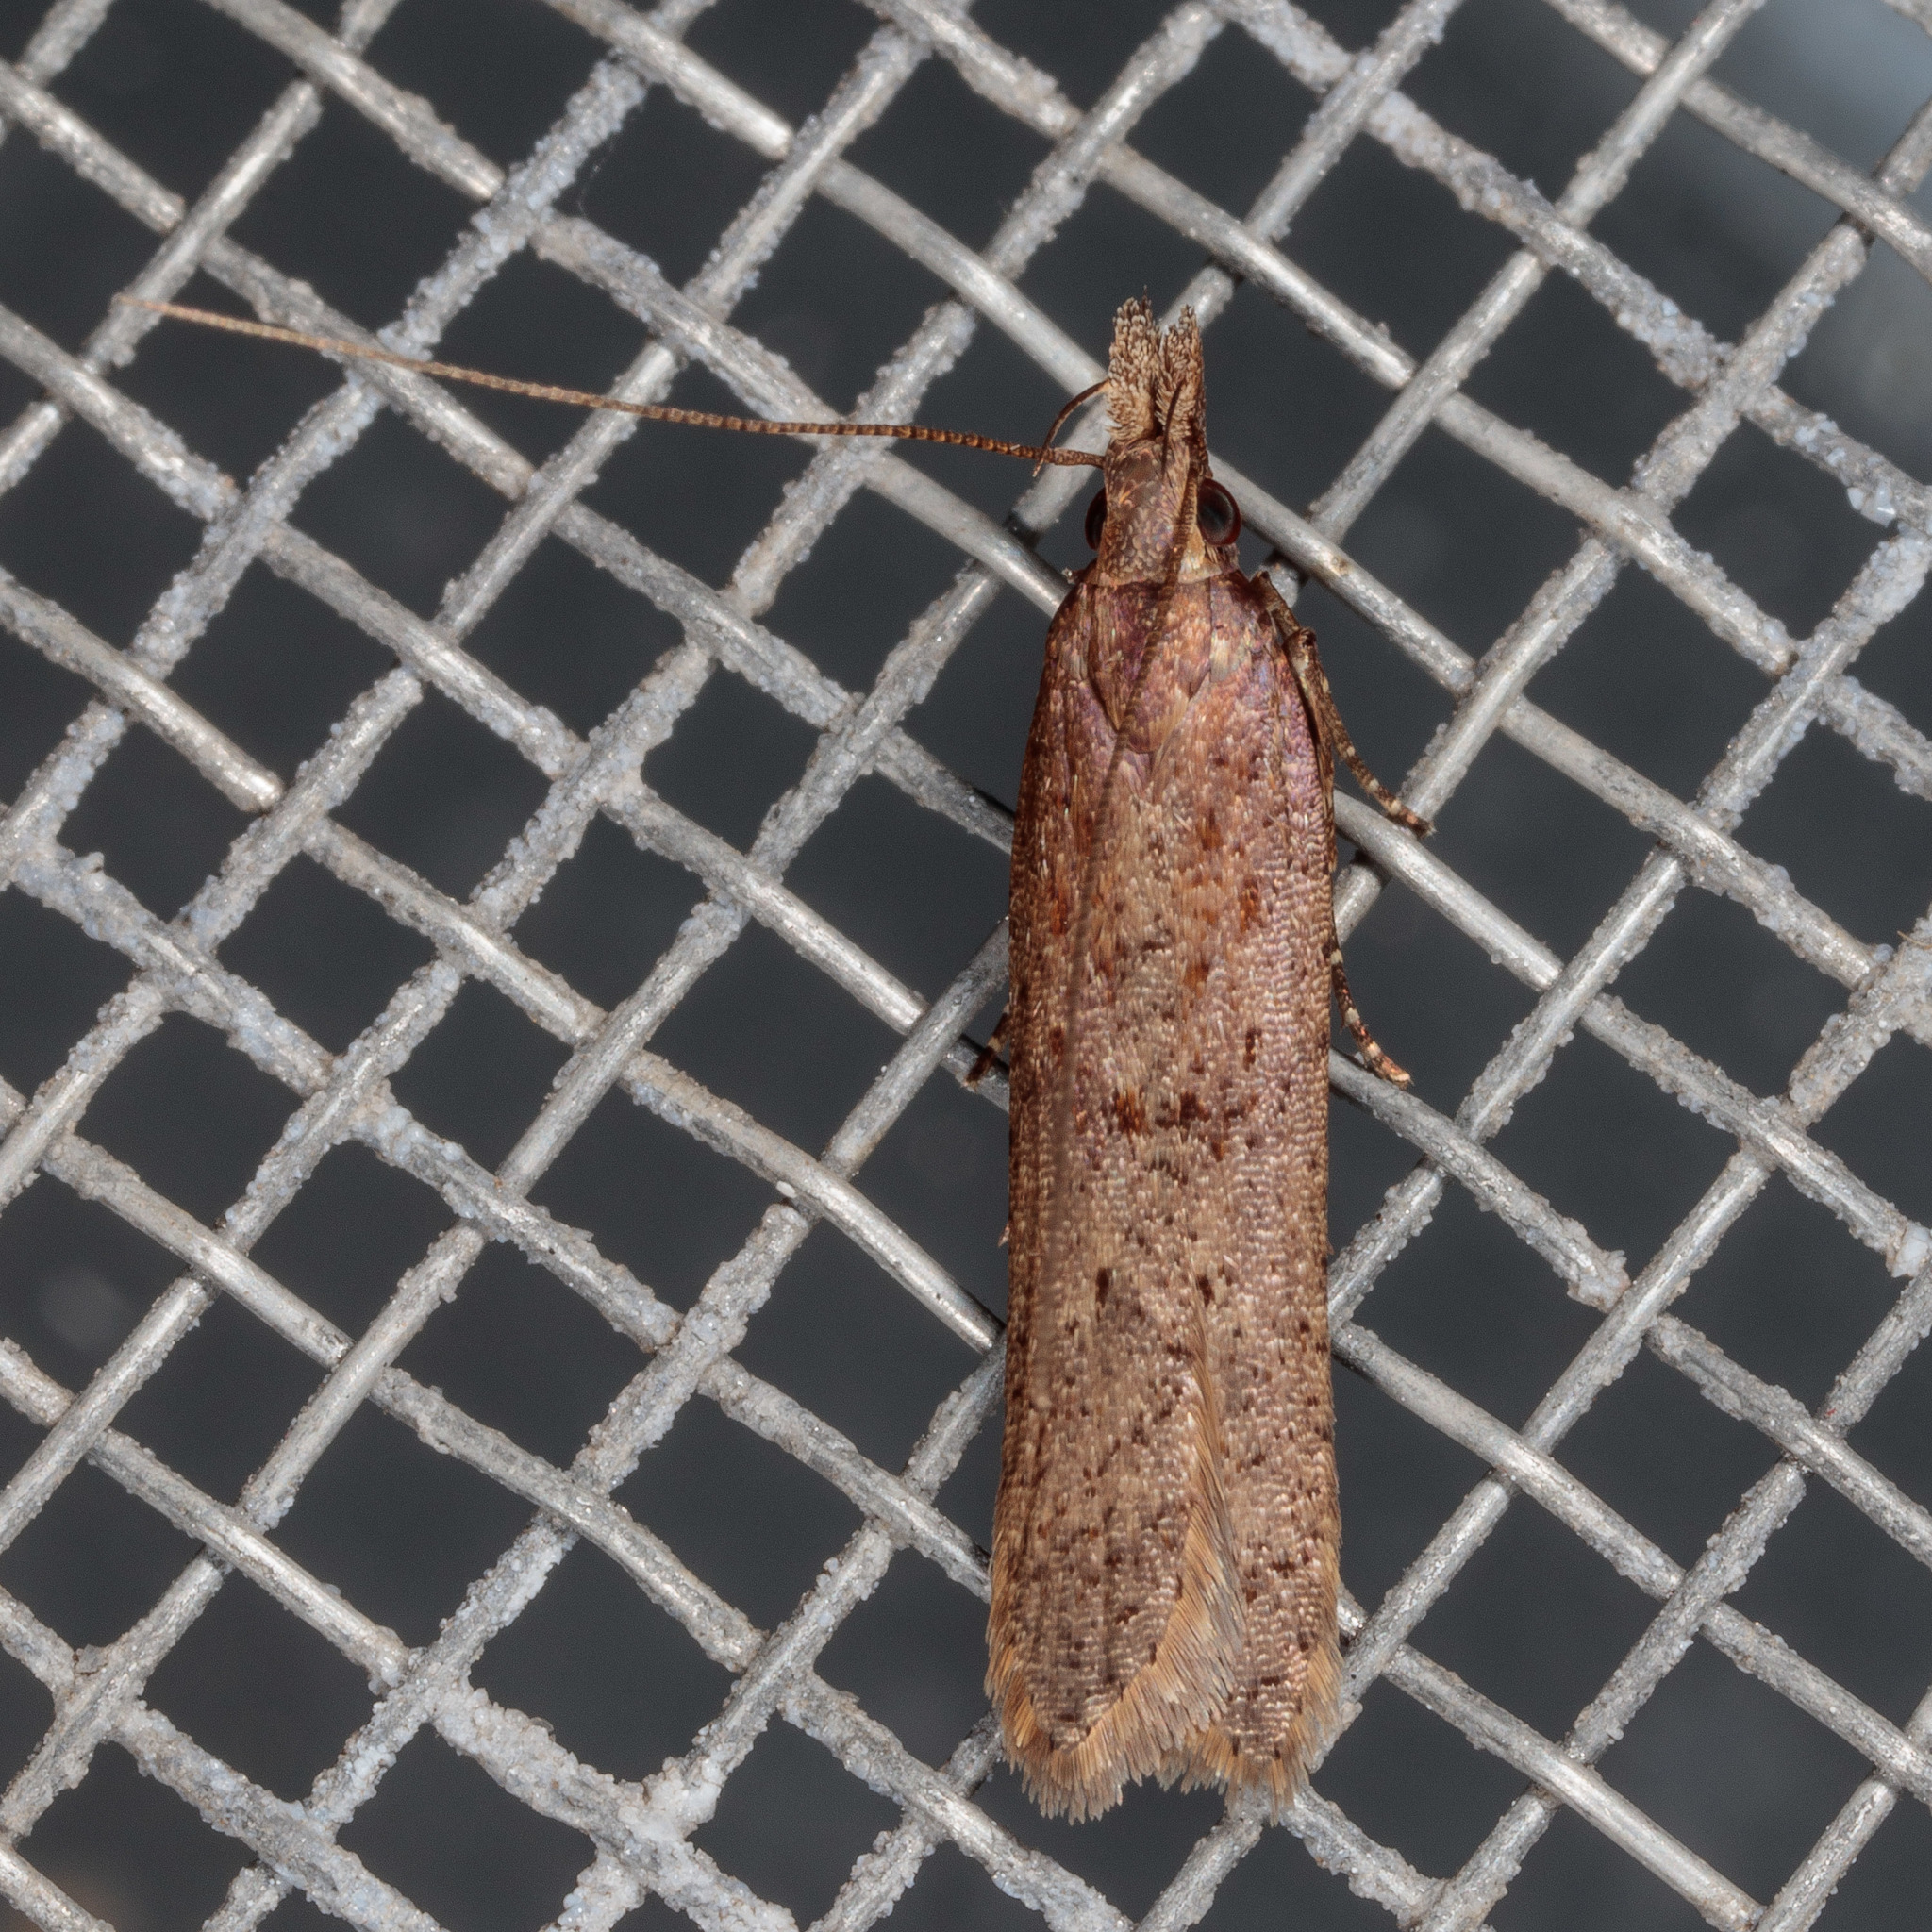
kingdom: Animalia
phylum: Arthropoda
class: Insecta
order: Lepidoptera
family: Gelechiidae
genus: Dichomeris
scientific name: Dichomeris ligulella
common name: Moth
